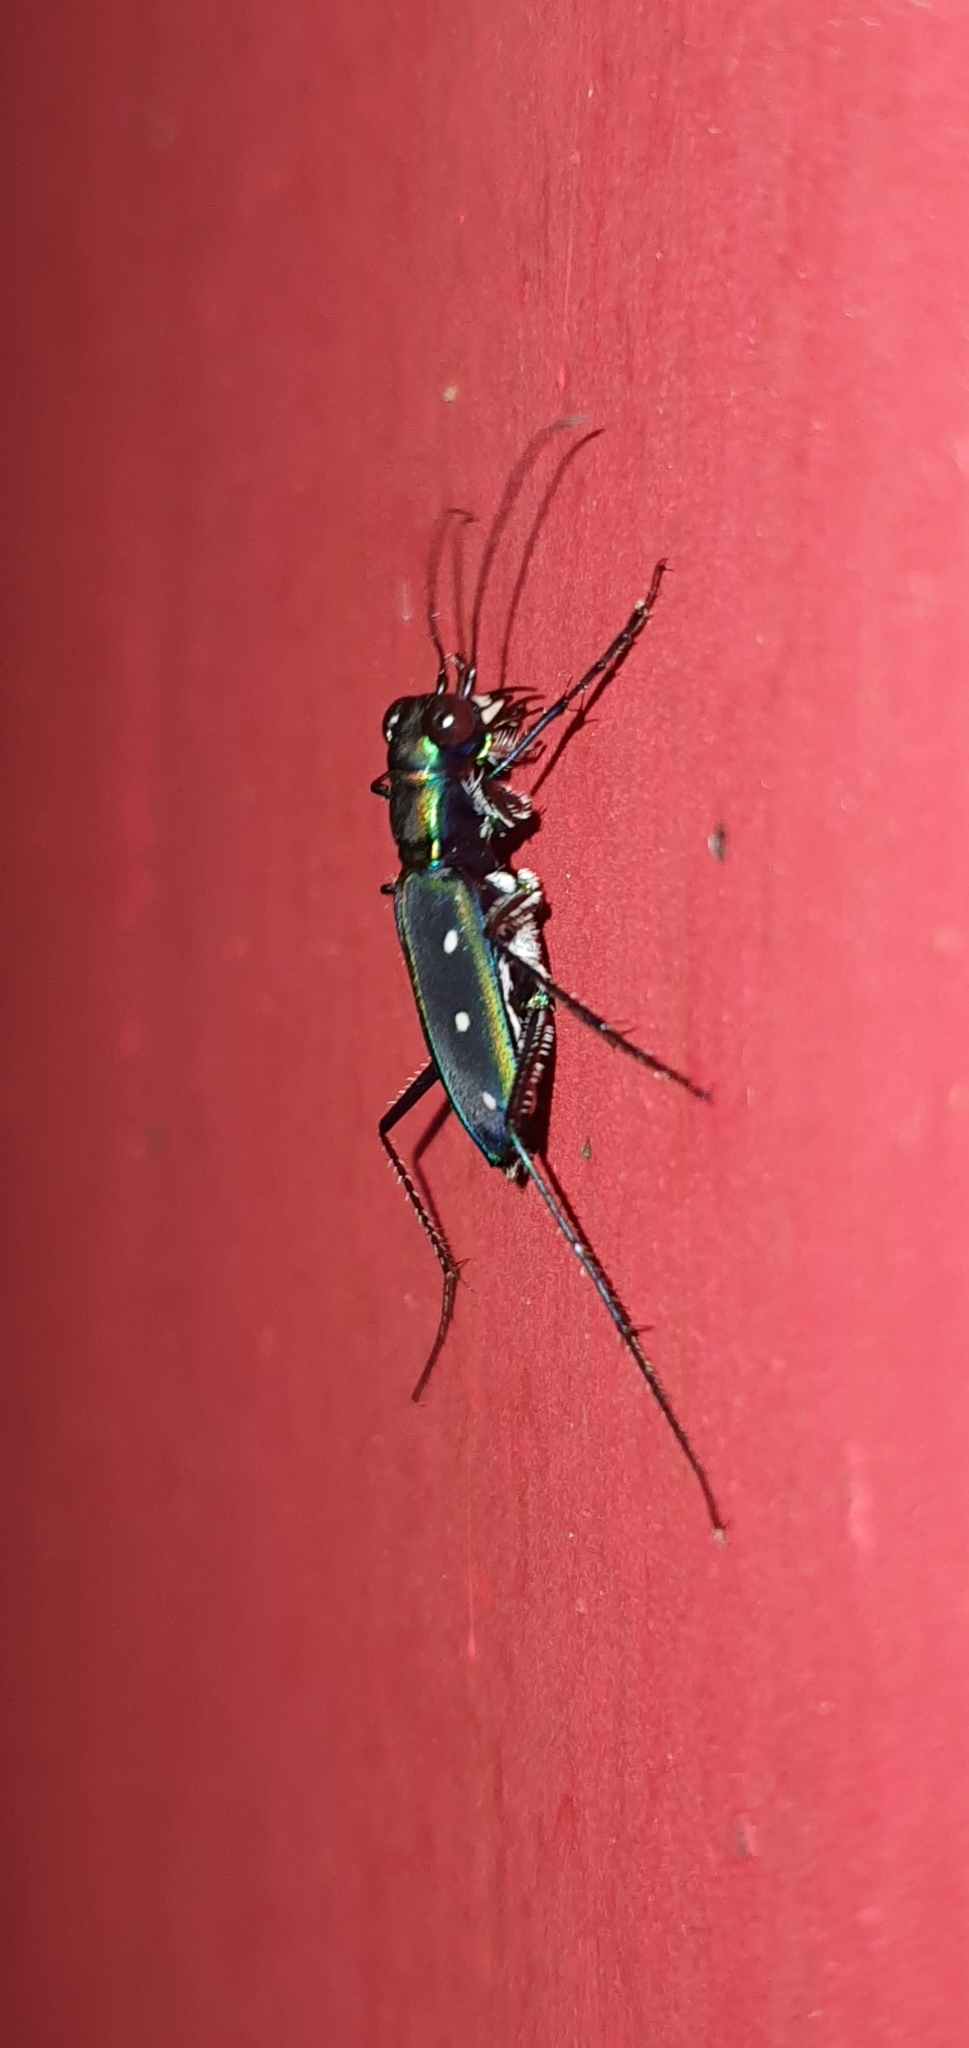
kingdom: Animalia
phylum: Arthropoda
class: Insecta
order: Coleoptera
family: Carabidae
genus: Cicindela
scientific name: Cicindela flavomaculata
